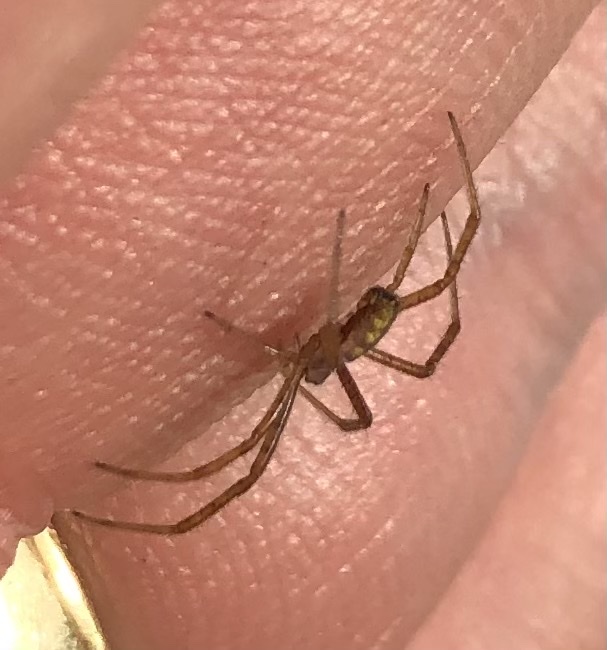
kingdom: Animalia
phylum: Arthropoda
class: Arachnida
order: Araneae
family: Araneidae
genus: Argiope
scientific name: Argiope trifasciata
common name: Banded garden spider
